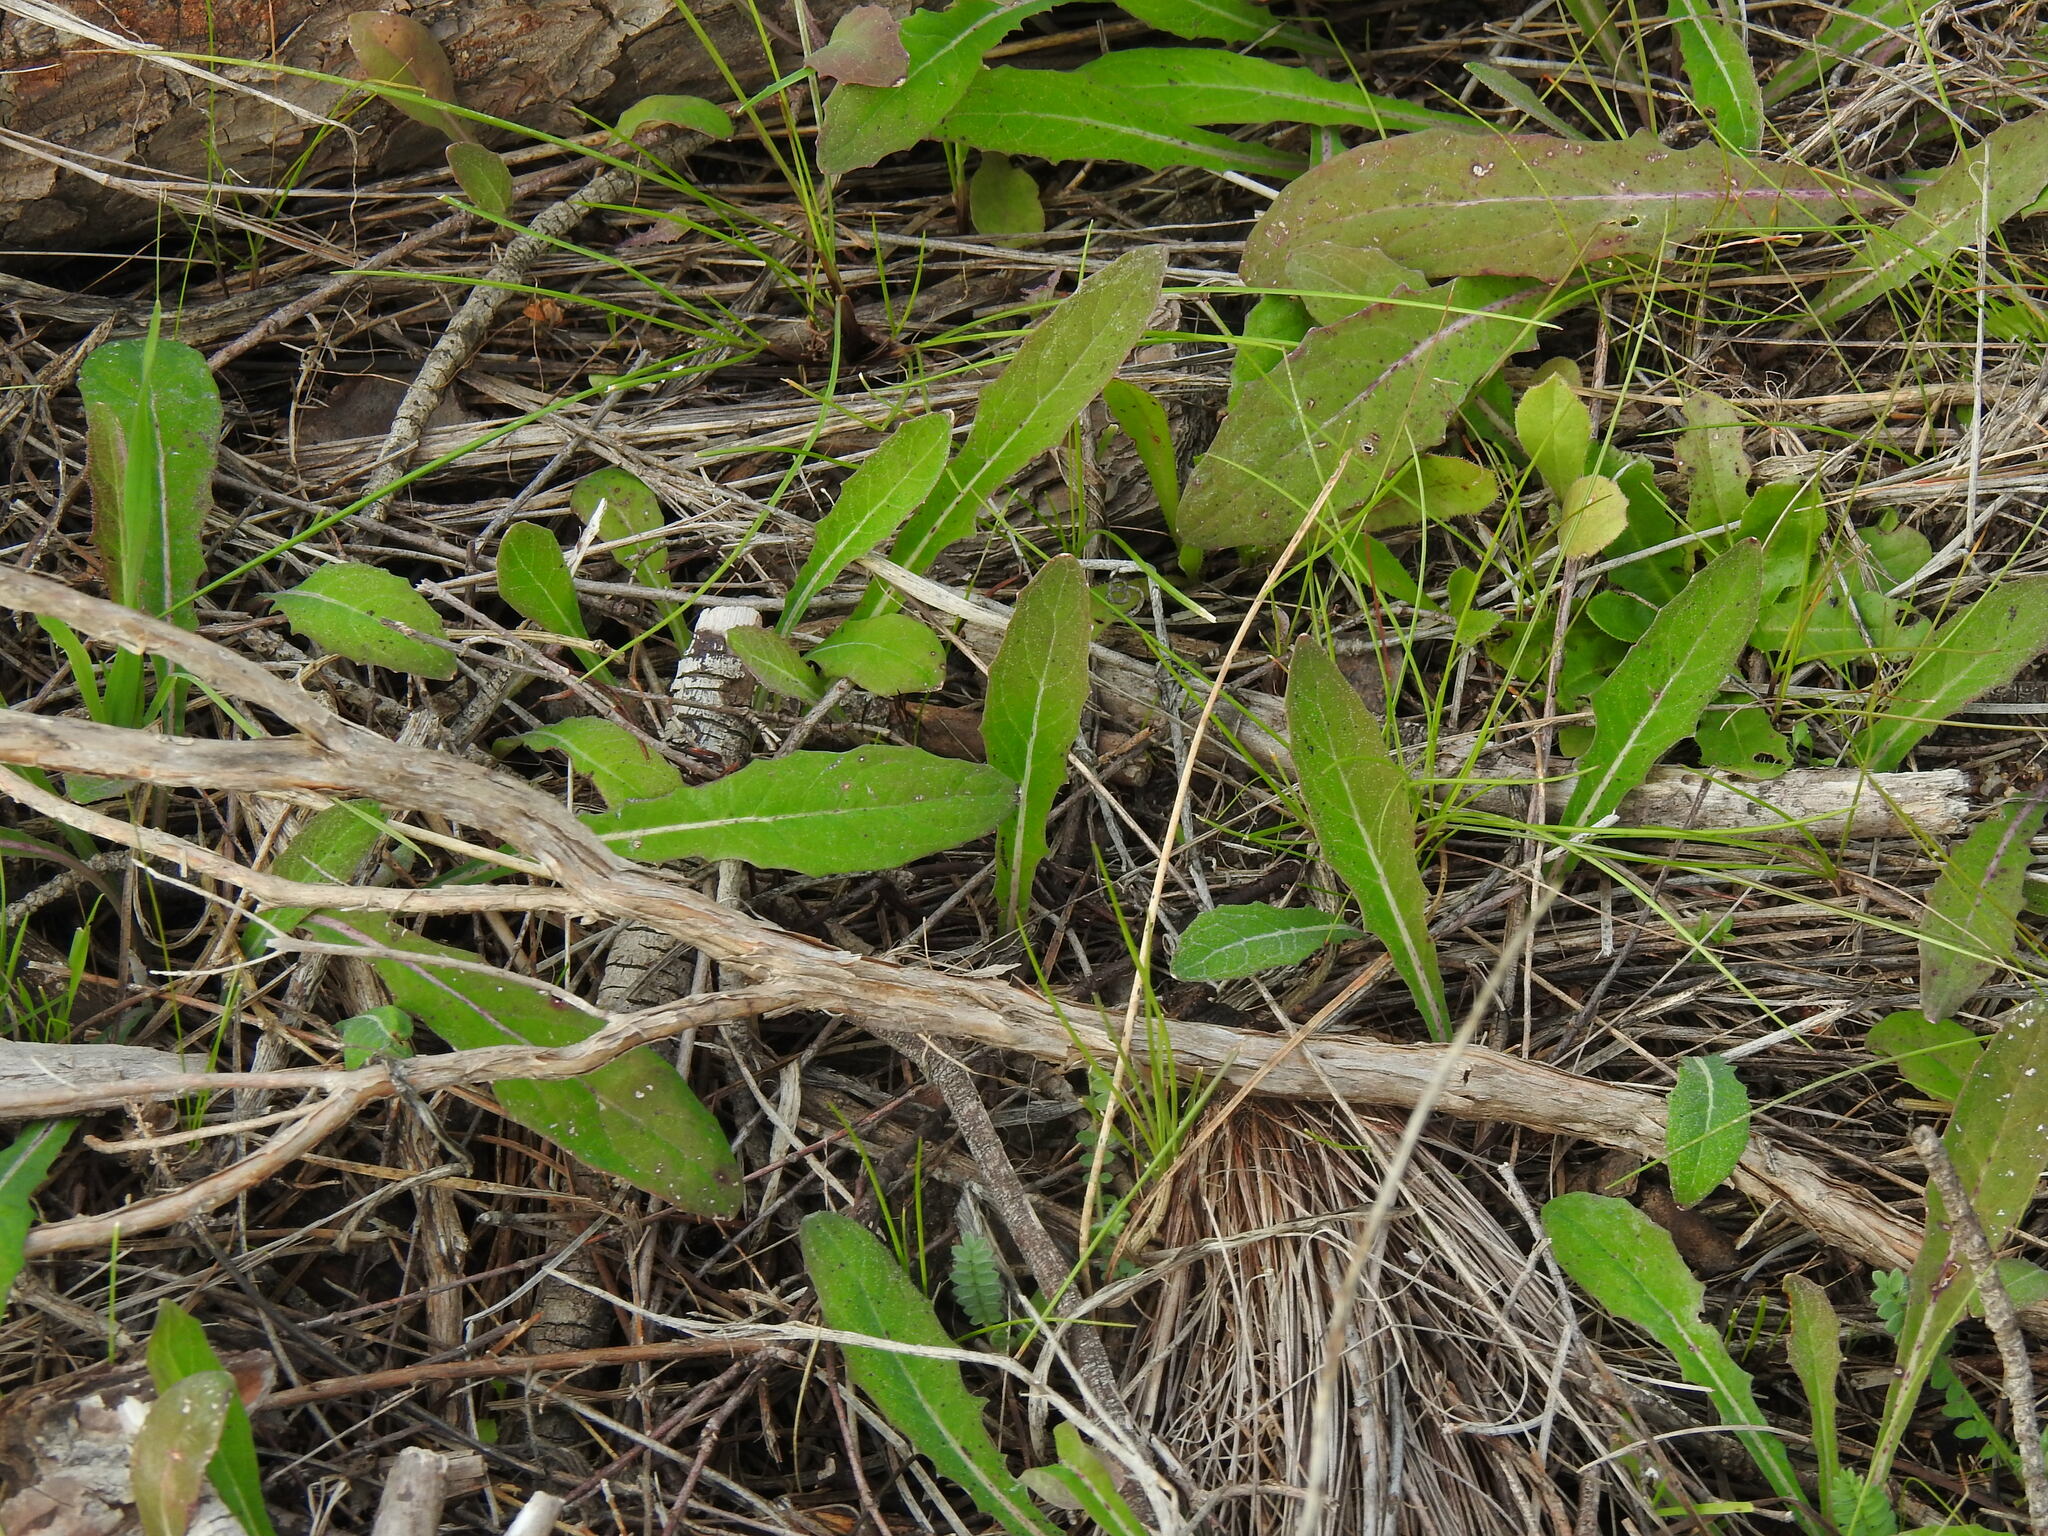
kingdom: Plantae
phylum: Tracheophyta
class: Magnoliopsida
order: Asterales
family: Asteraceae
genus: Aetheorhiza
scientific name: Aetheorhiza bulbosa
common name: Tuberous hawk's-beard
